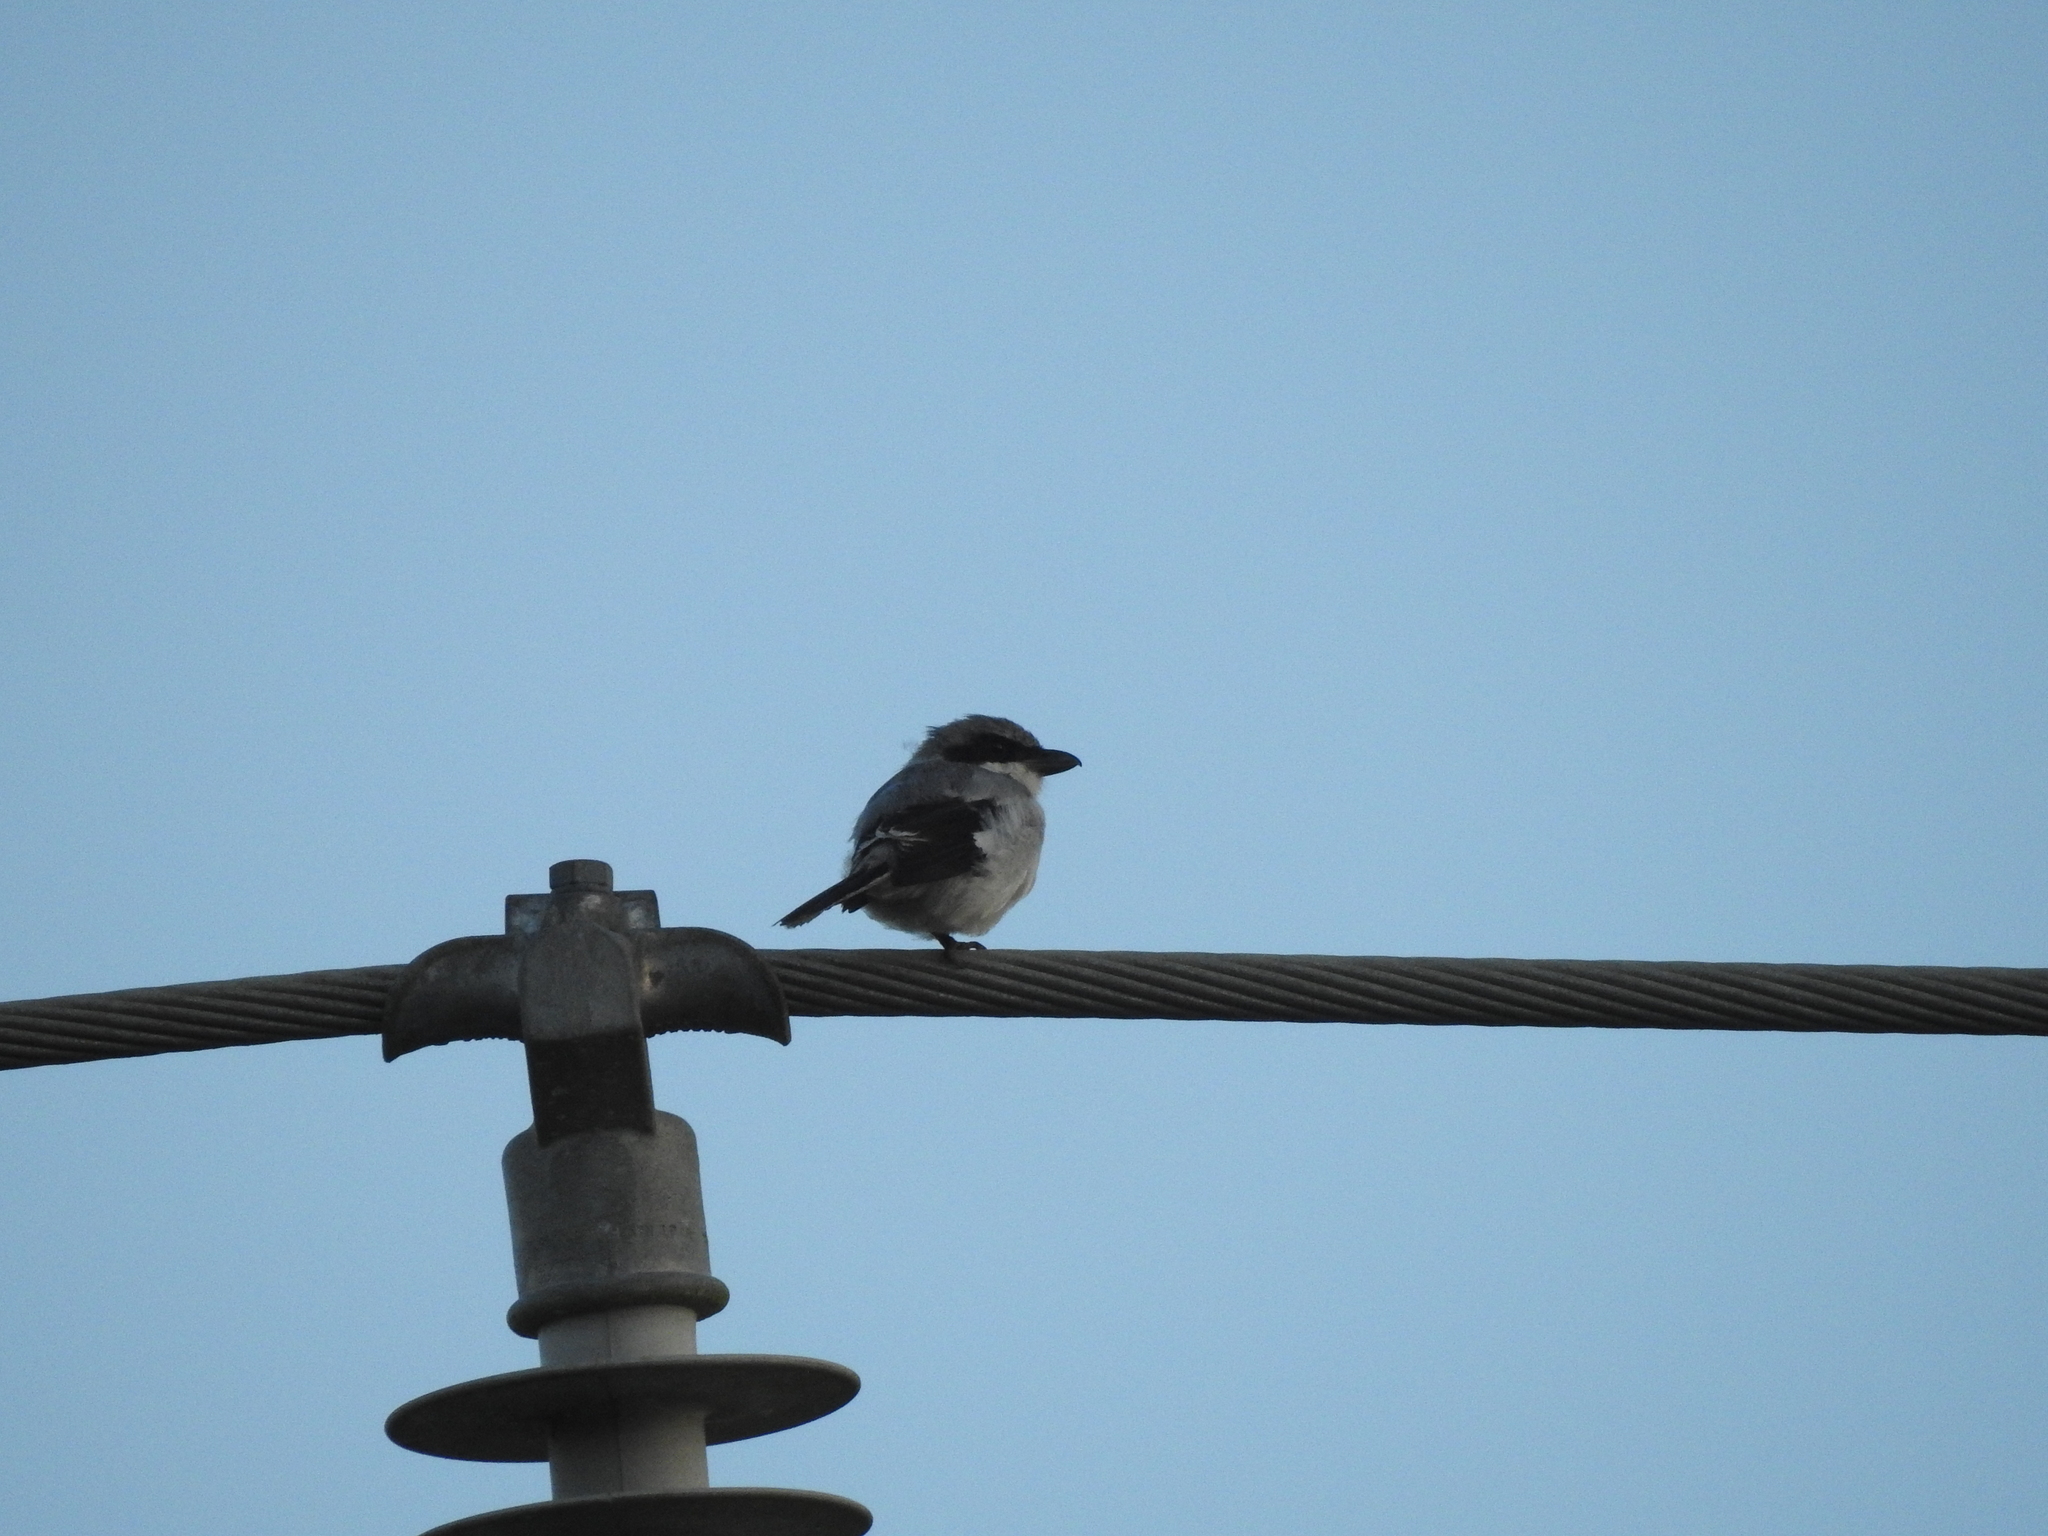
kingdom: Animalia
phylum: Chordata
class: Aves
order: Passeriformes
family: Laniidae
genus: Lanius
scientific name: Lanius ludovicianus
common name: Loggerhead shrike
